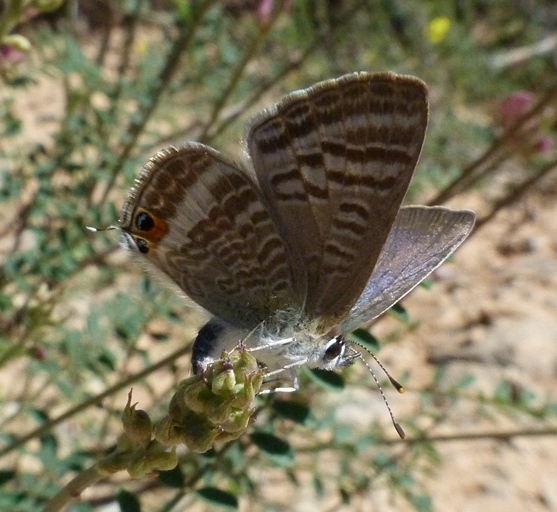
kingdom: Animalia
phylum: Arthropoda
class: Insecta
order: Lepidoptera
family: Lycaenidae
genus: Lampides
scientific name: Lampides boeticus
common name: Long-tailed blue
